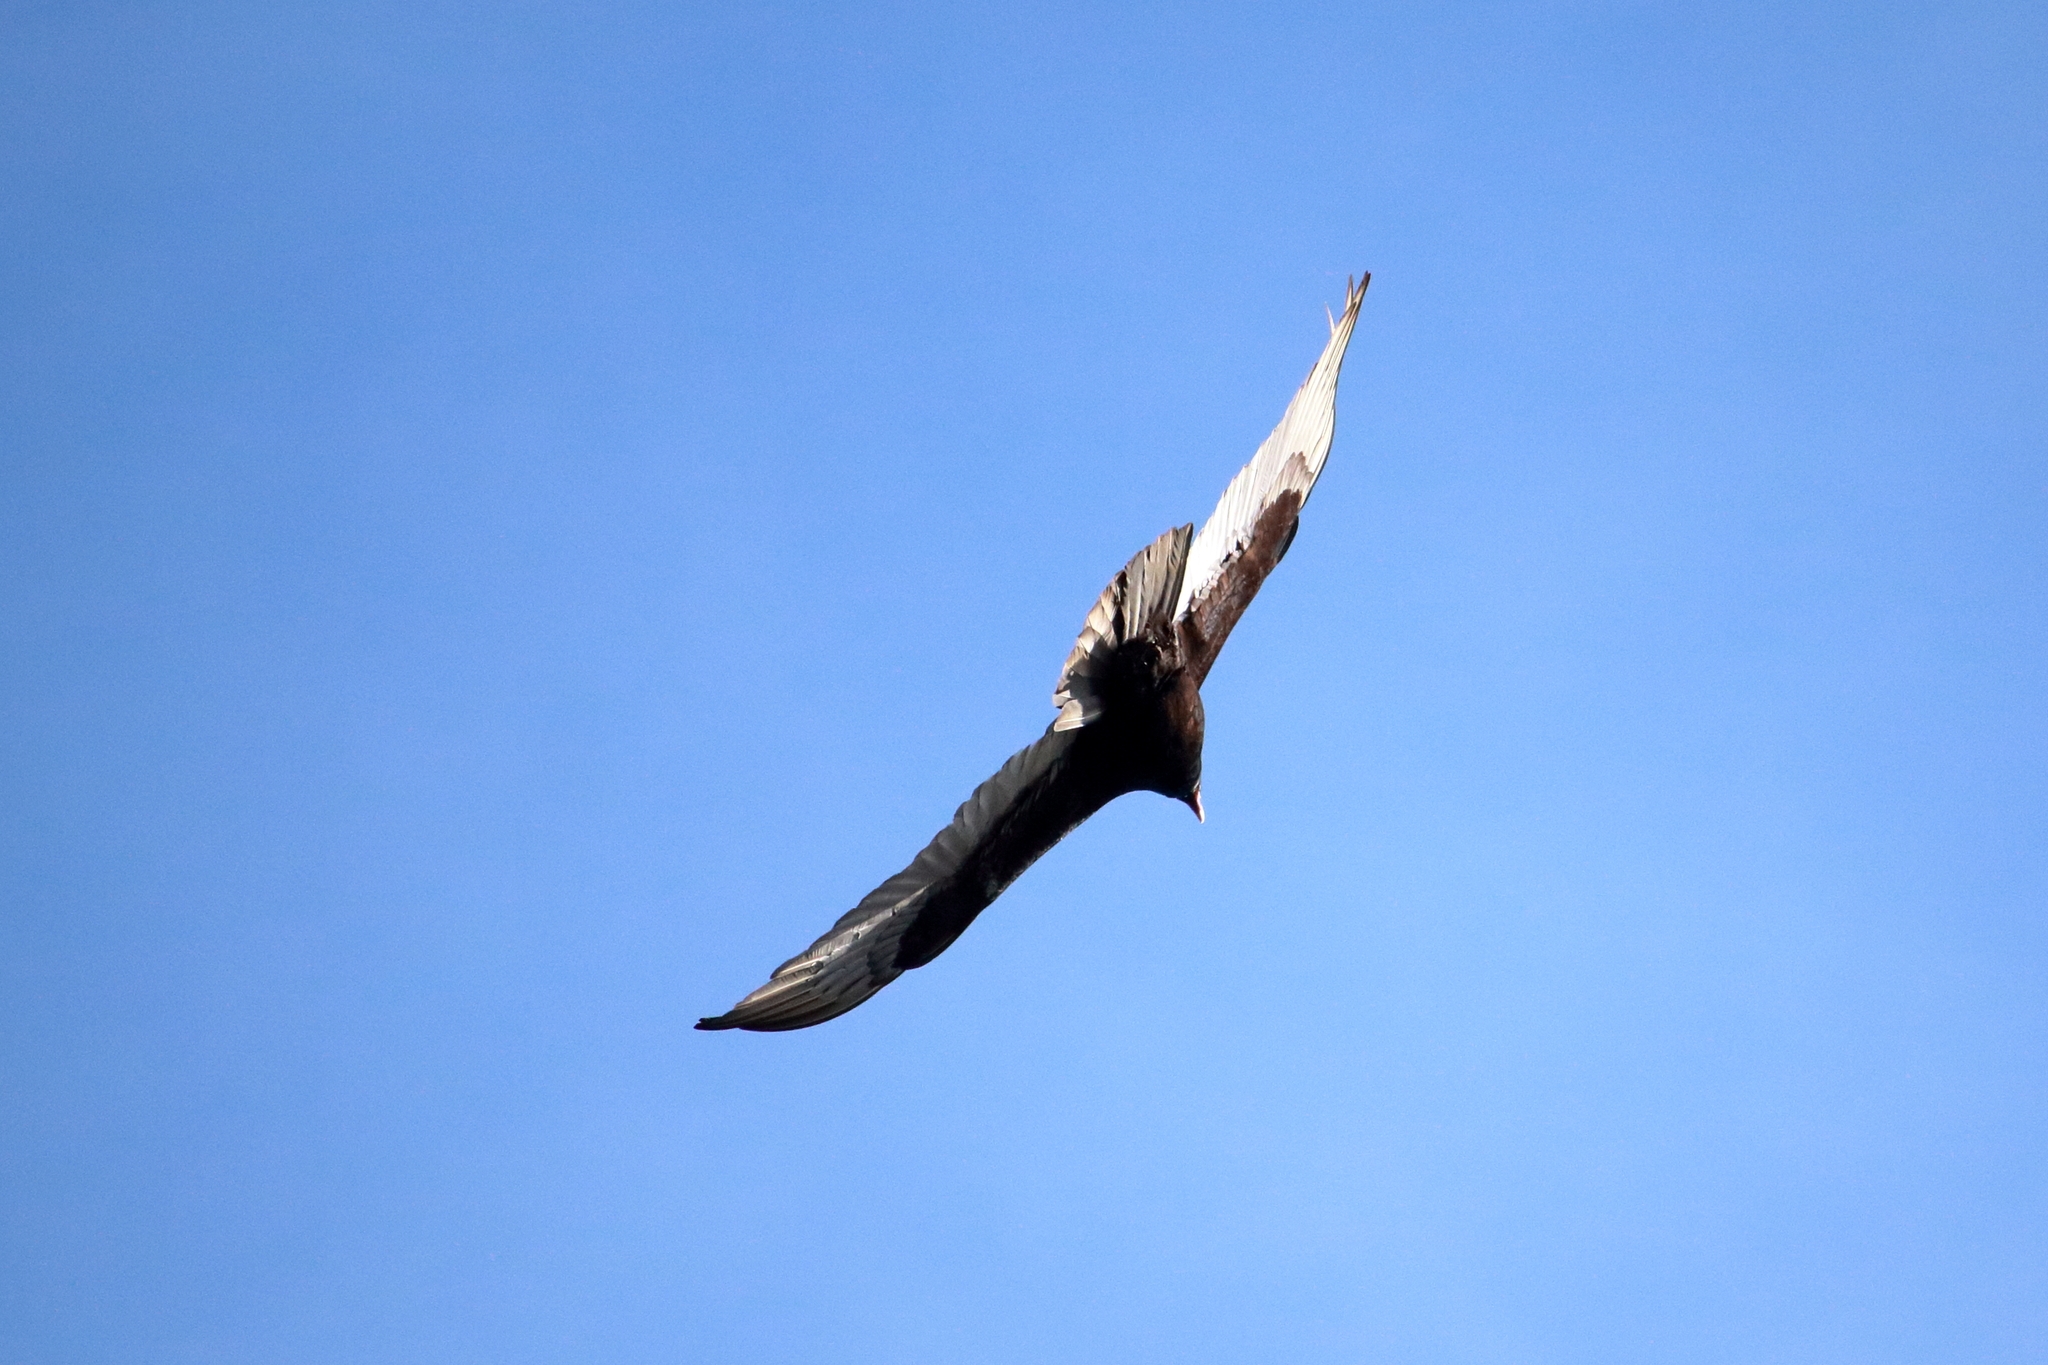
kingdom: Animalia
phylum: Chordata
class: Aves
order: Accipitriformes
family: Cathartidae
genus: Cathartes
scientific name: Cathartes aura
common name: Turkey vulture
